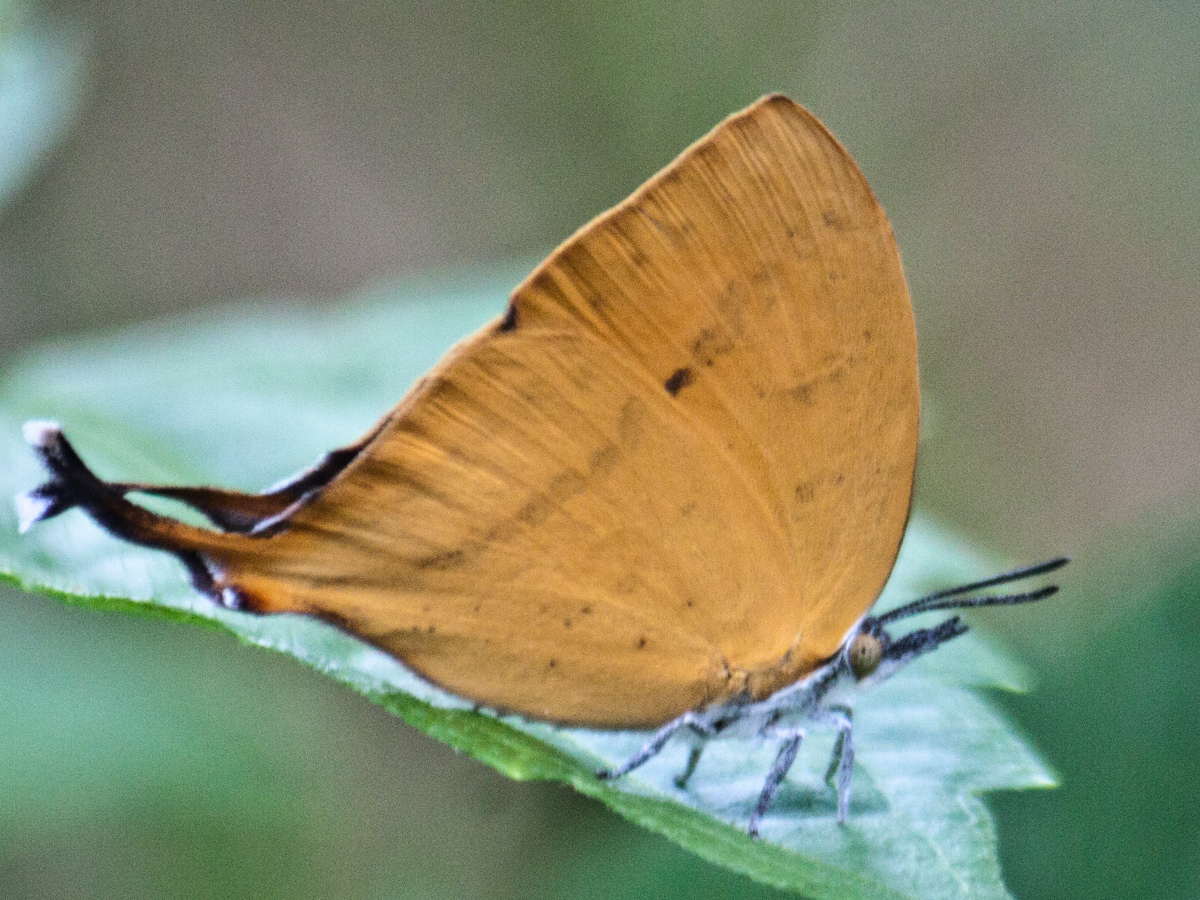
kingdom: Animalia
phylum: Arthropoda
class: Insecta
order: Lepidoptera
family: Lycaenidae
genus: Loxura
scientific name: Loxura atymnus
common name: Common yamfly
